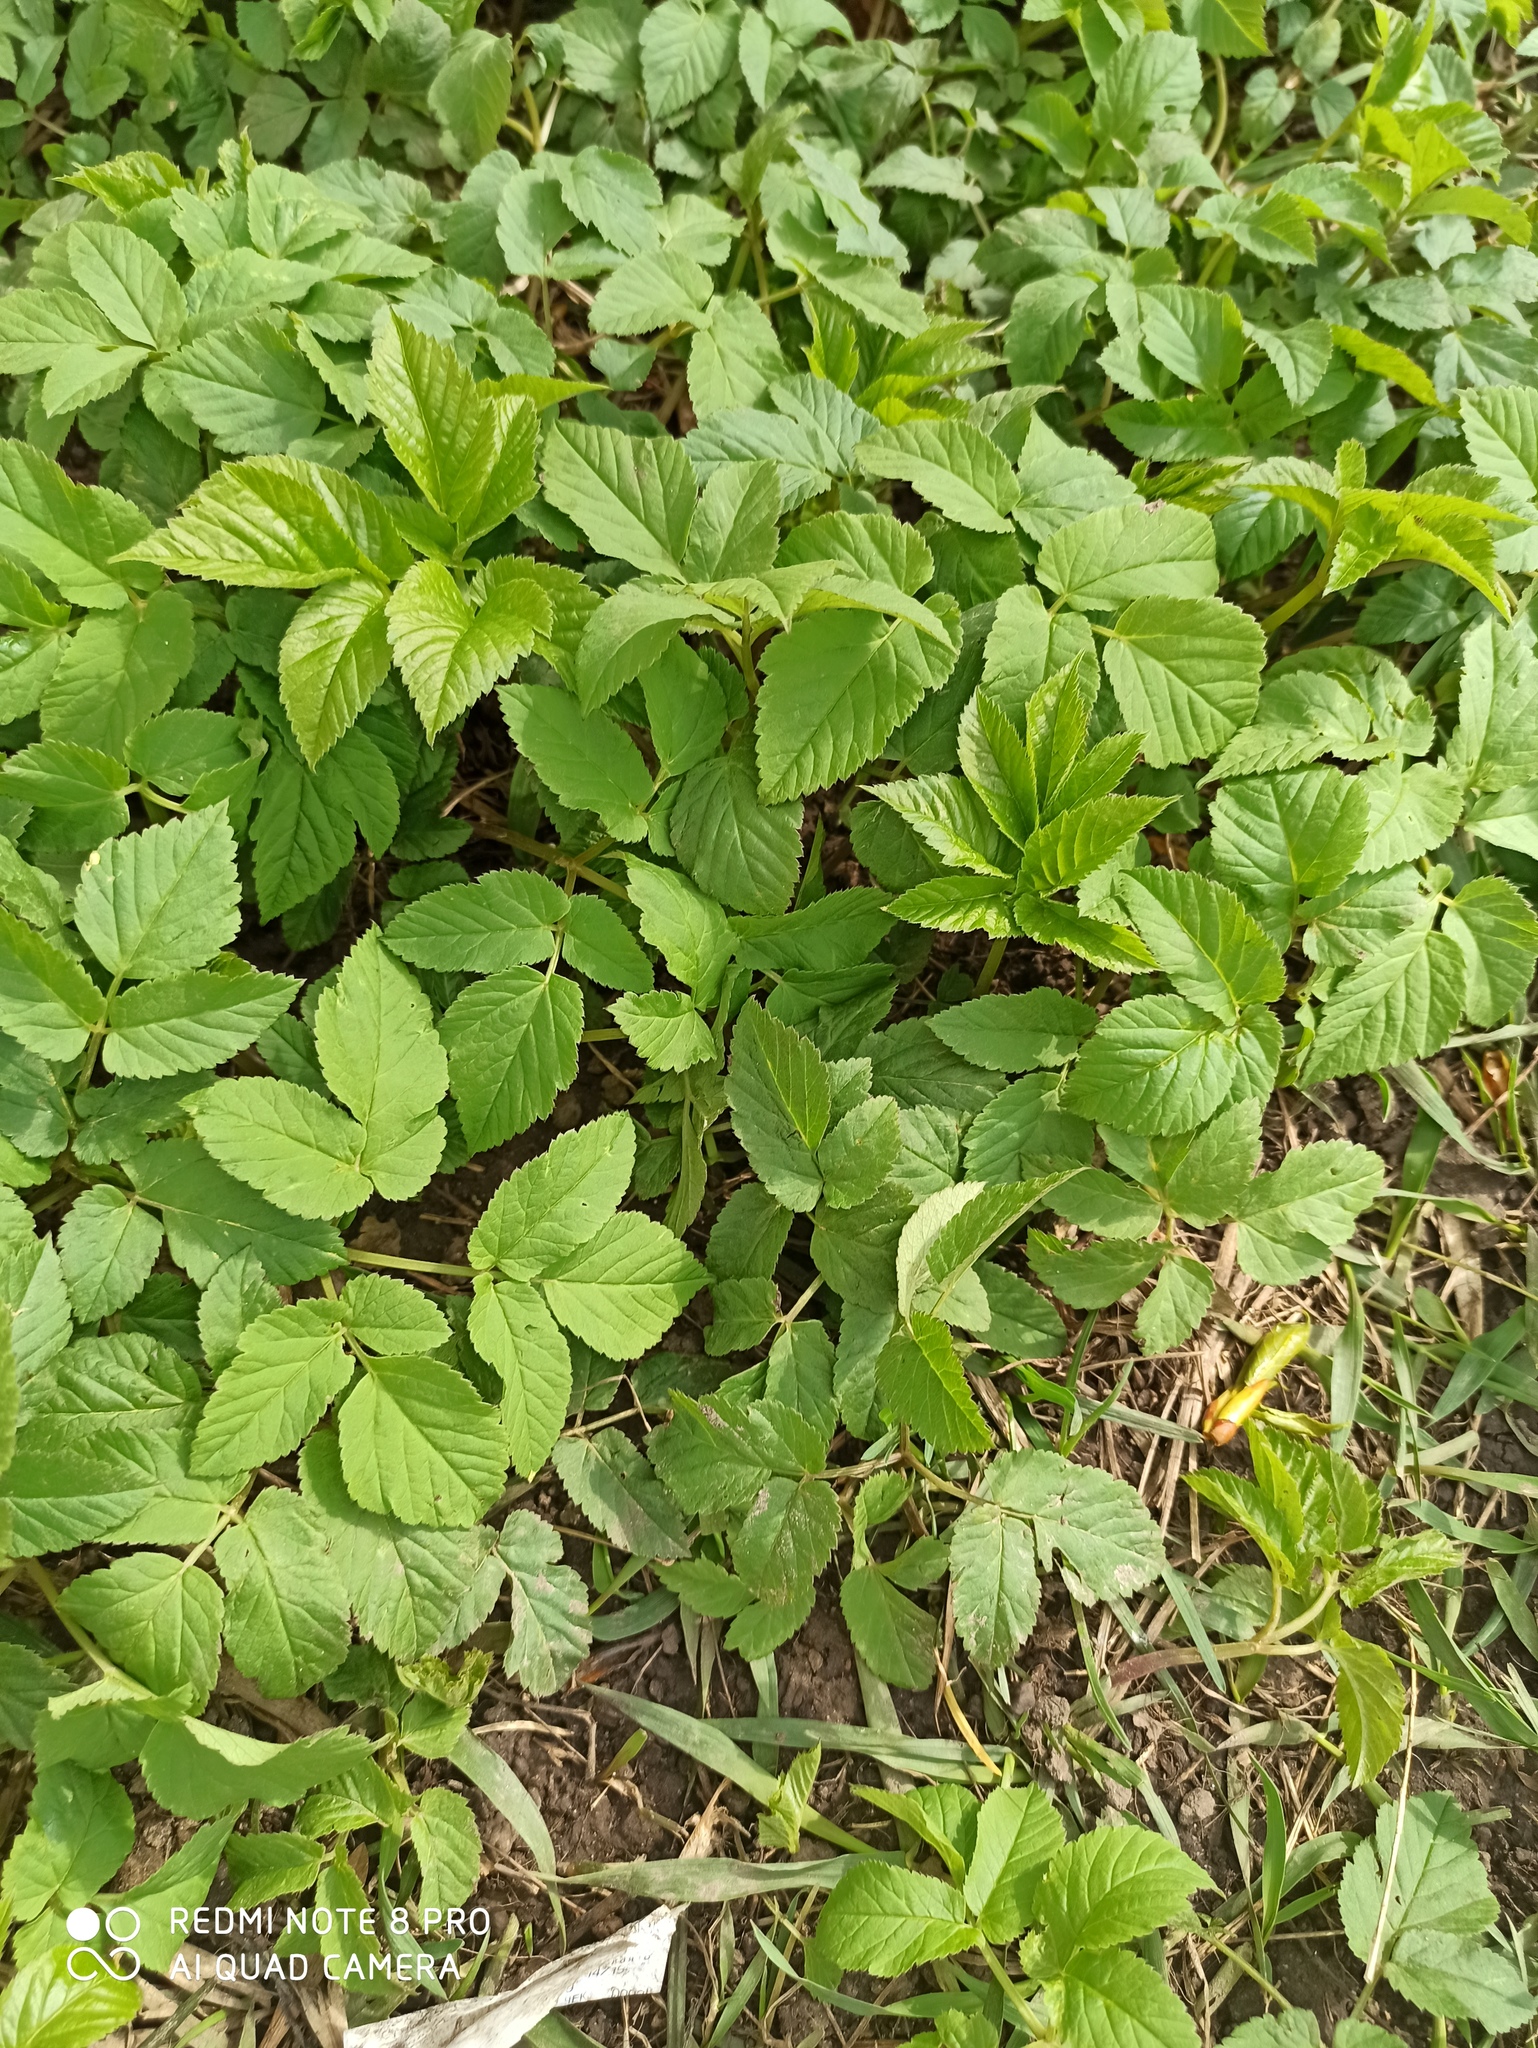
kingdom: Plantae
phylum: Tracheophyta
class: Magnoliopsida
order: Apiales
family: Apiaceae
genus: Aegopodium
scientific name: Aegopodium podagraria
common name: Ground-elder
